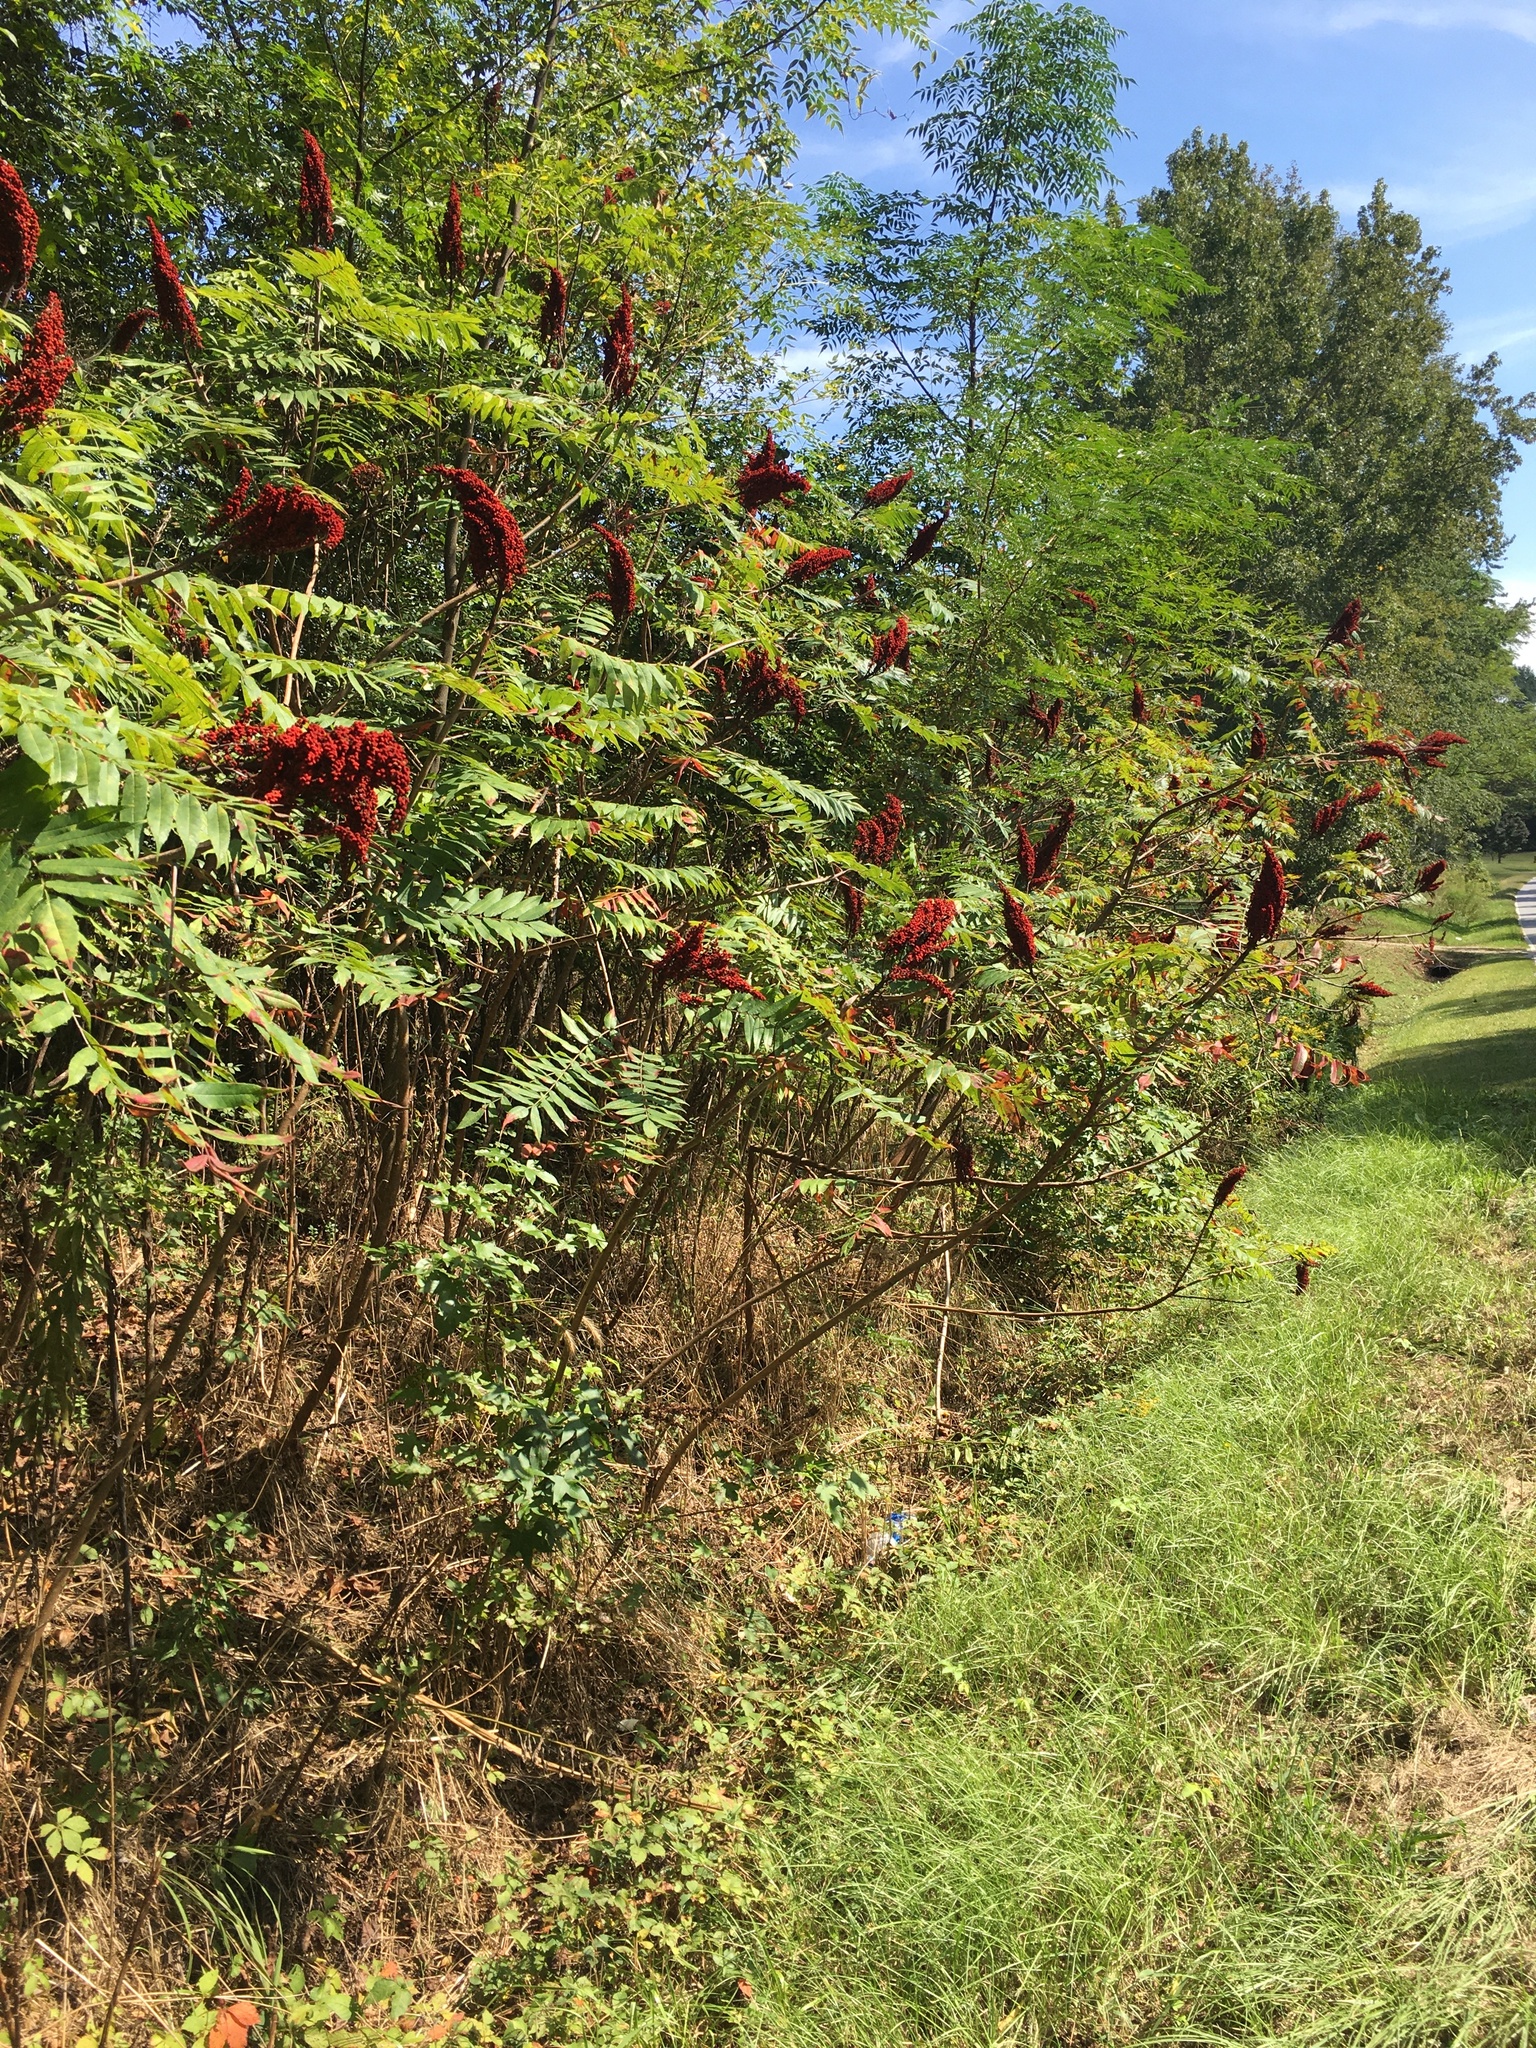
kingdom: Plantae
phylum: Tracheophyta
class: Magnoliopsida
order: Sapindales
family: Anacardiaceae
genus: Rhus
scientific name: Rhus glabra
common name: Scarlet sumac
